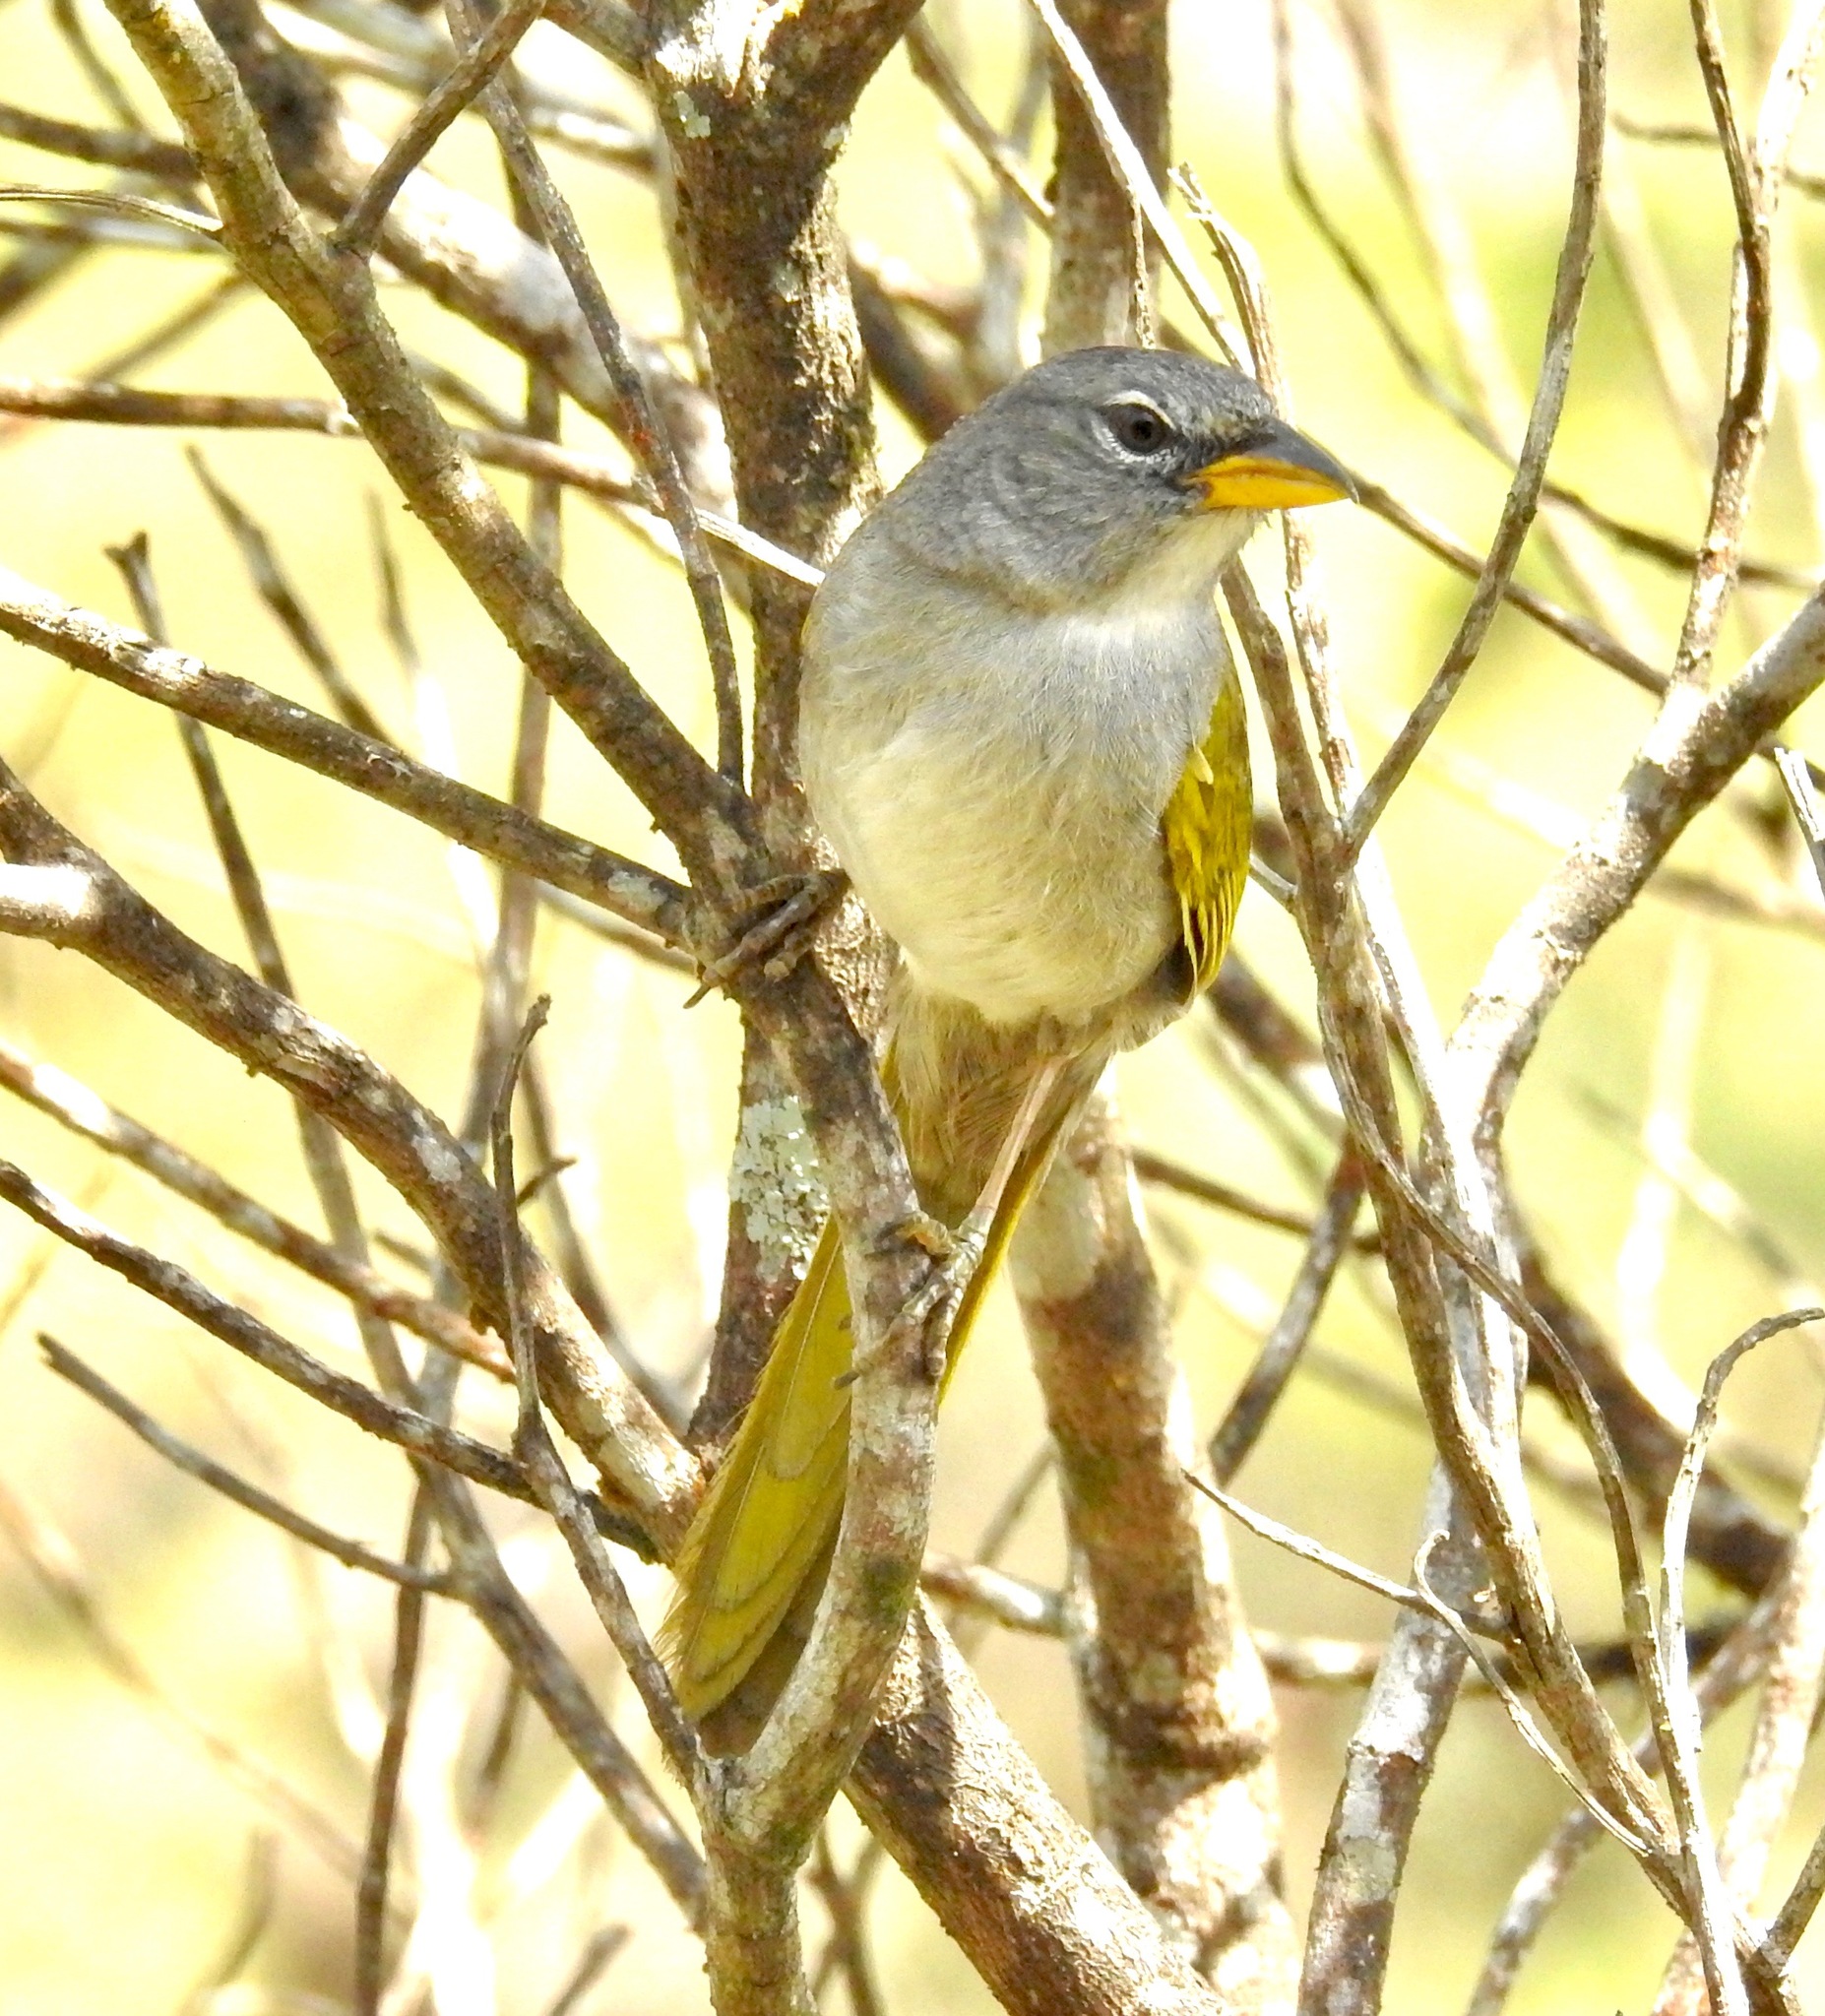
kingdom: Animalia
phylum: Chordata
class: Aves
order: Passeriformes
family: Thraupidae
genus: Embernagra
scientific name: Embernagra longicauda
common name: Serra finch
